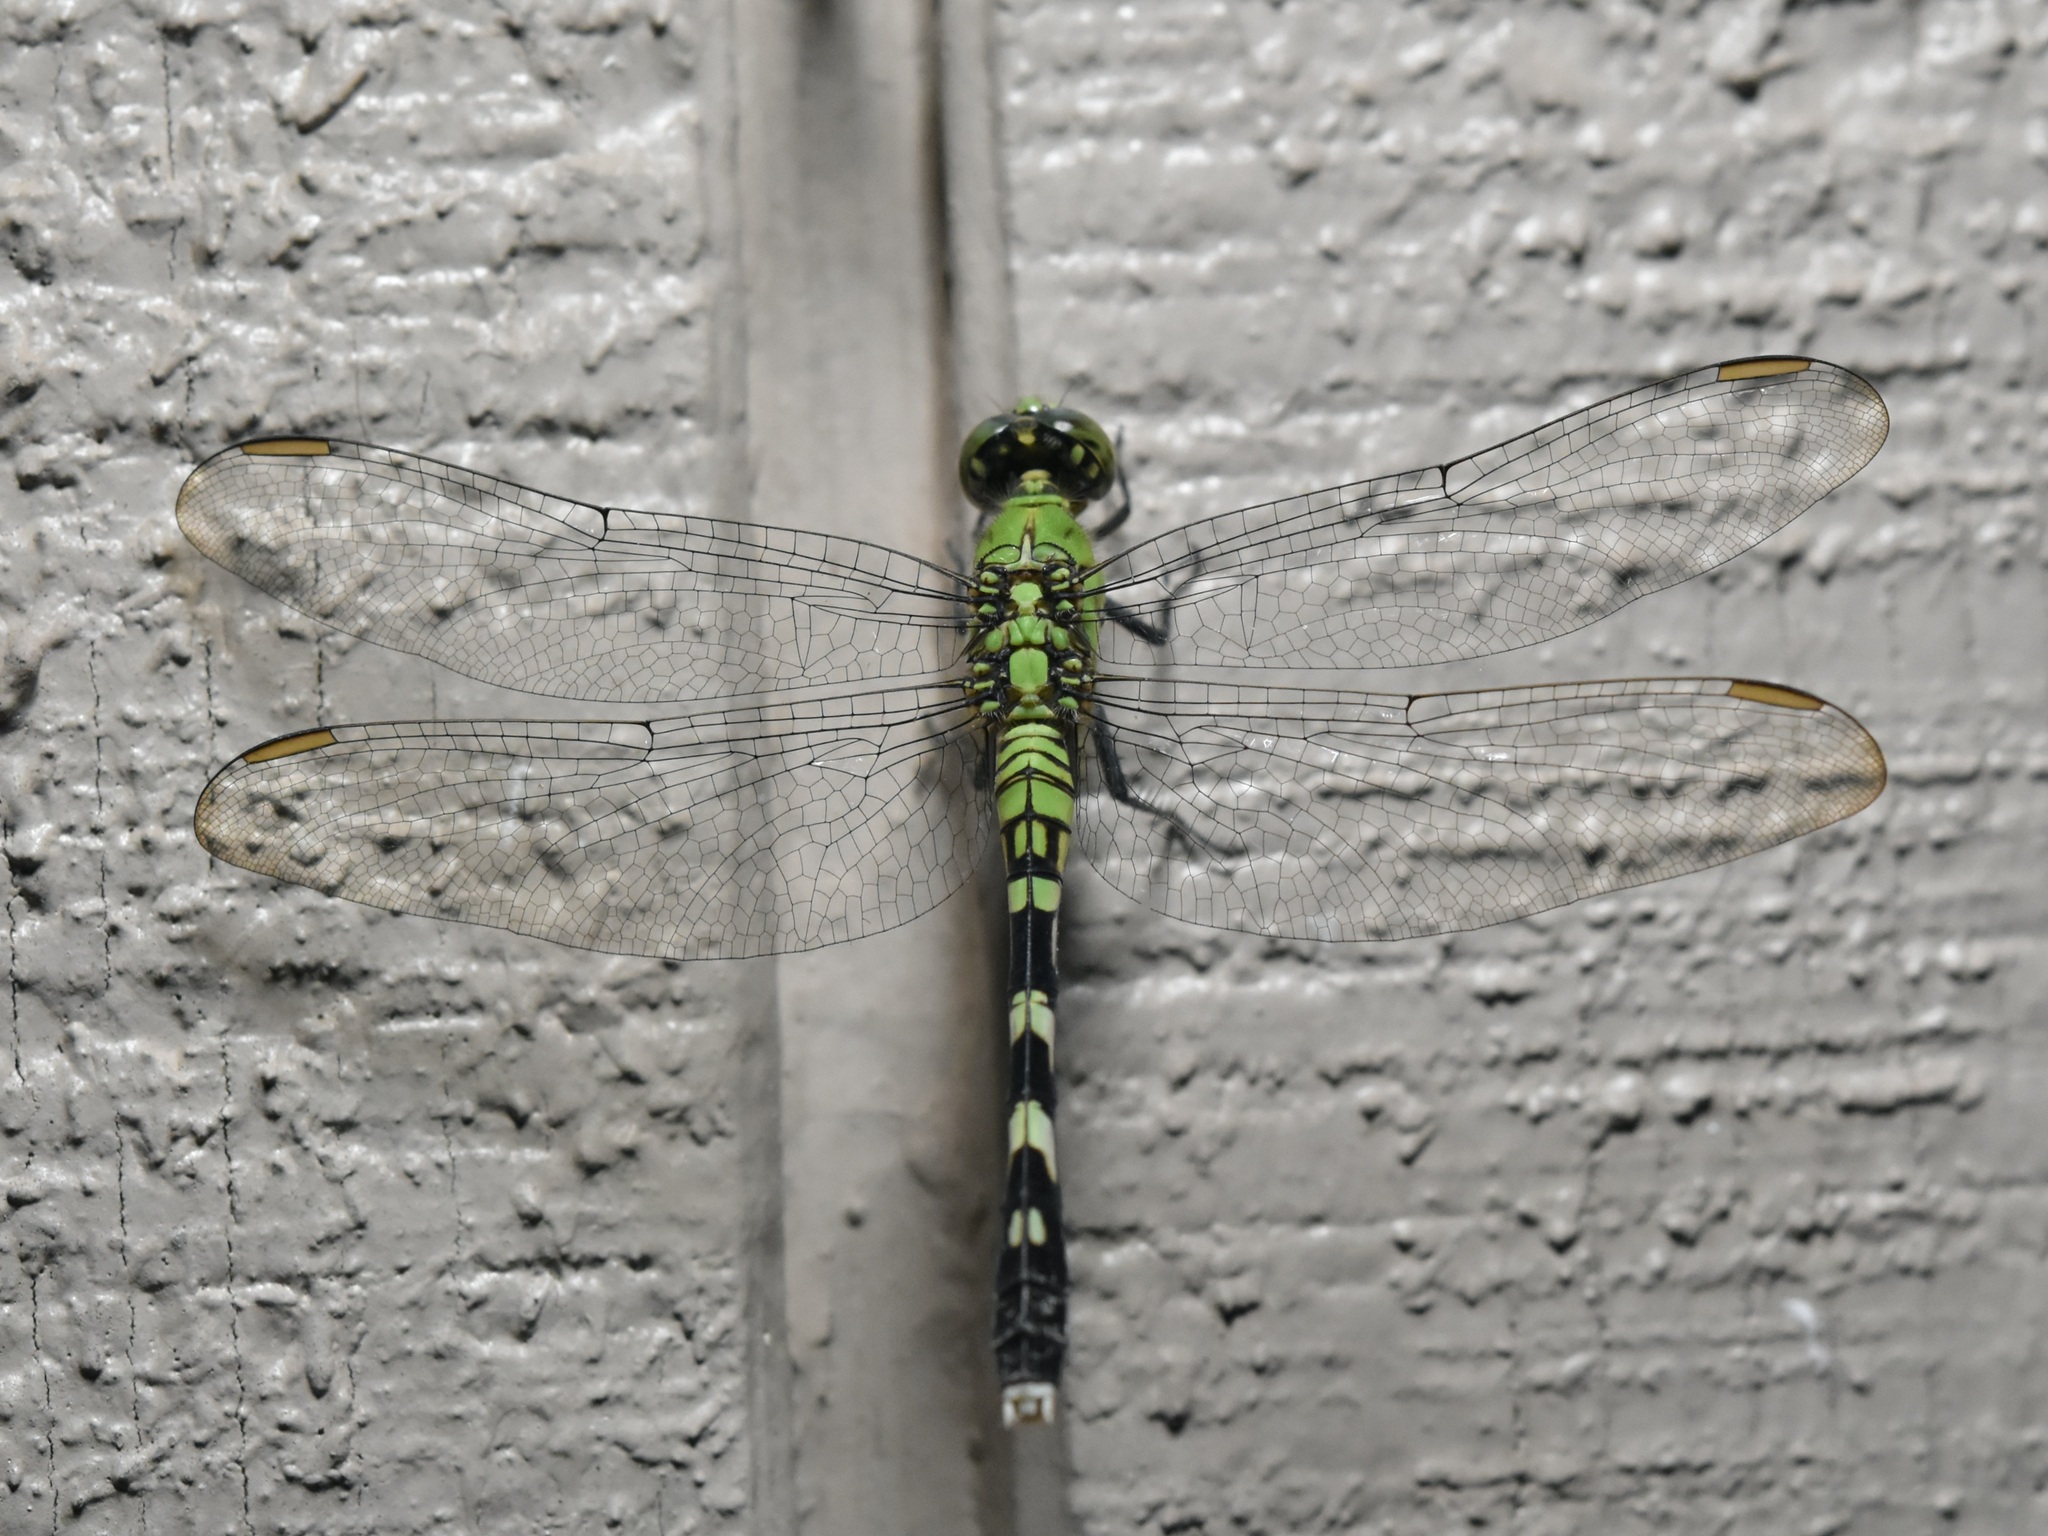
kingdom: Animalia
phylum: Arthropoda
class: Insecta
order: Odonata
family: Libellulidae
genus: Erythemis
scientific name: Erythemis simplicicollis
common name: Eastern pondhawk
